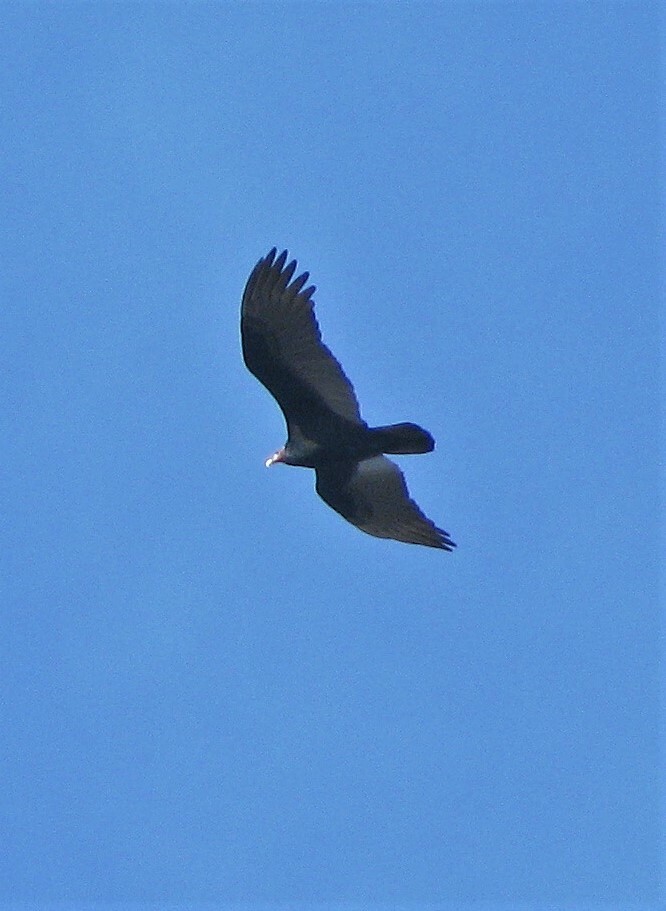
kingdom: Animalia
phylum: Chordata
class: Aves
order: Accipitriformes
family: Cathartidae
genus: Cathartes
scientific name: Cathartes aura
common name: Turkey vulture
